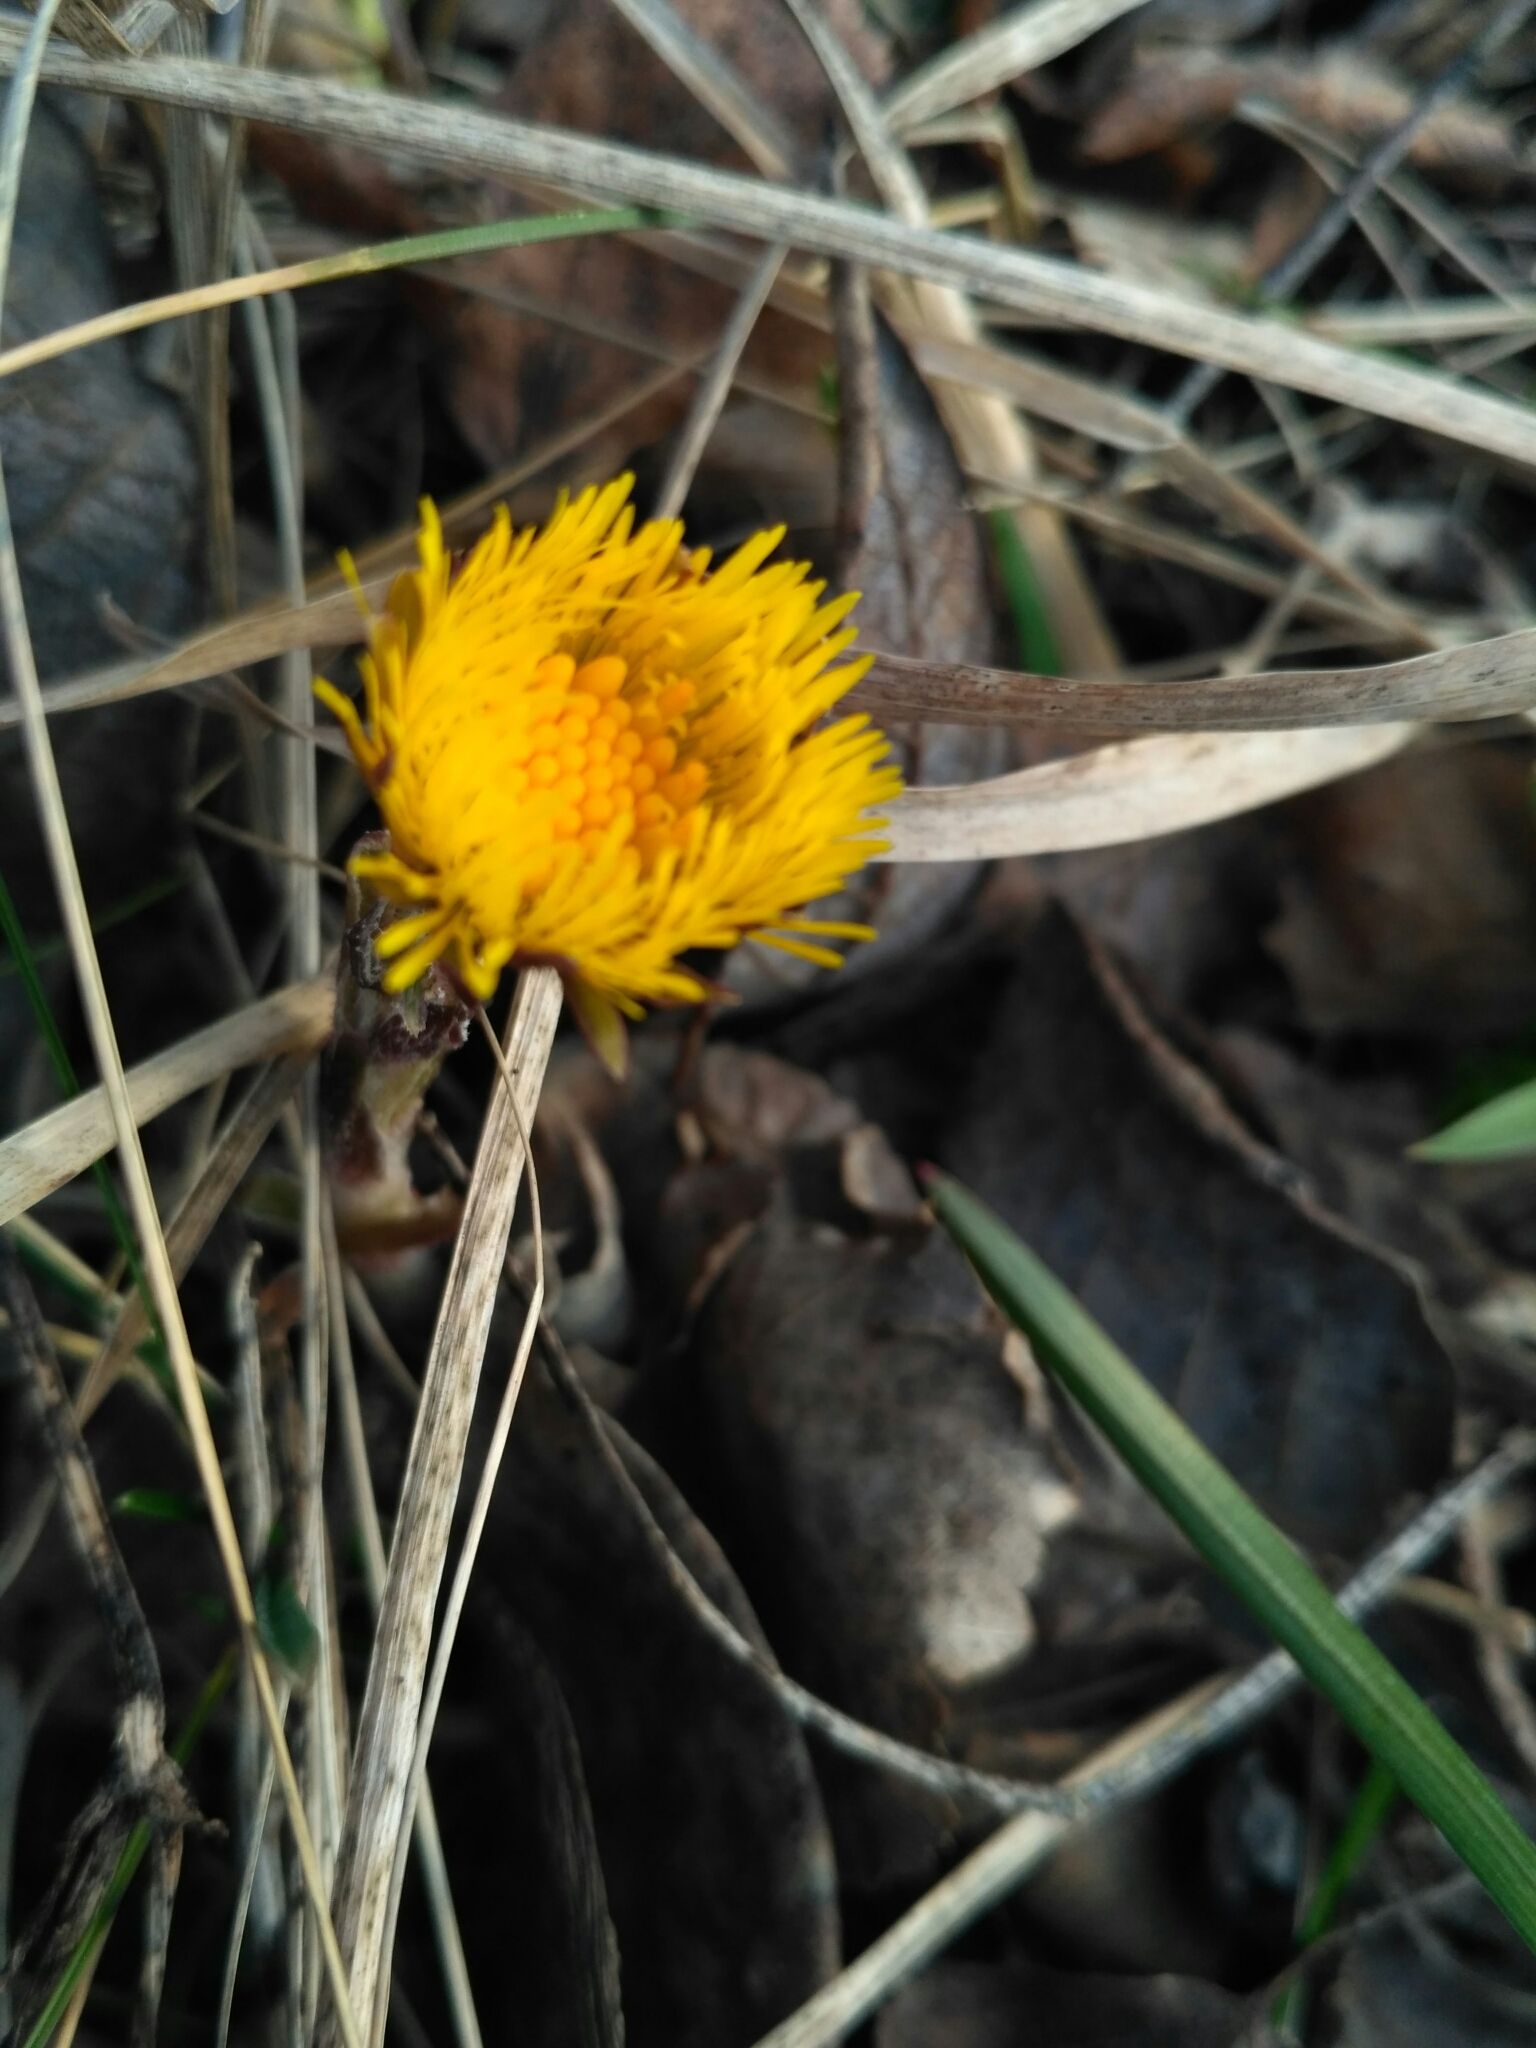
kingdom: Plantae
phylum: Tracheophyta
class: Magnoliopsida
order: Asterales
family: Asteraceae
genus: Tussilago
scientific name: Tussilago farfara
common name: Coltsfoot
